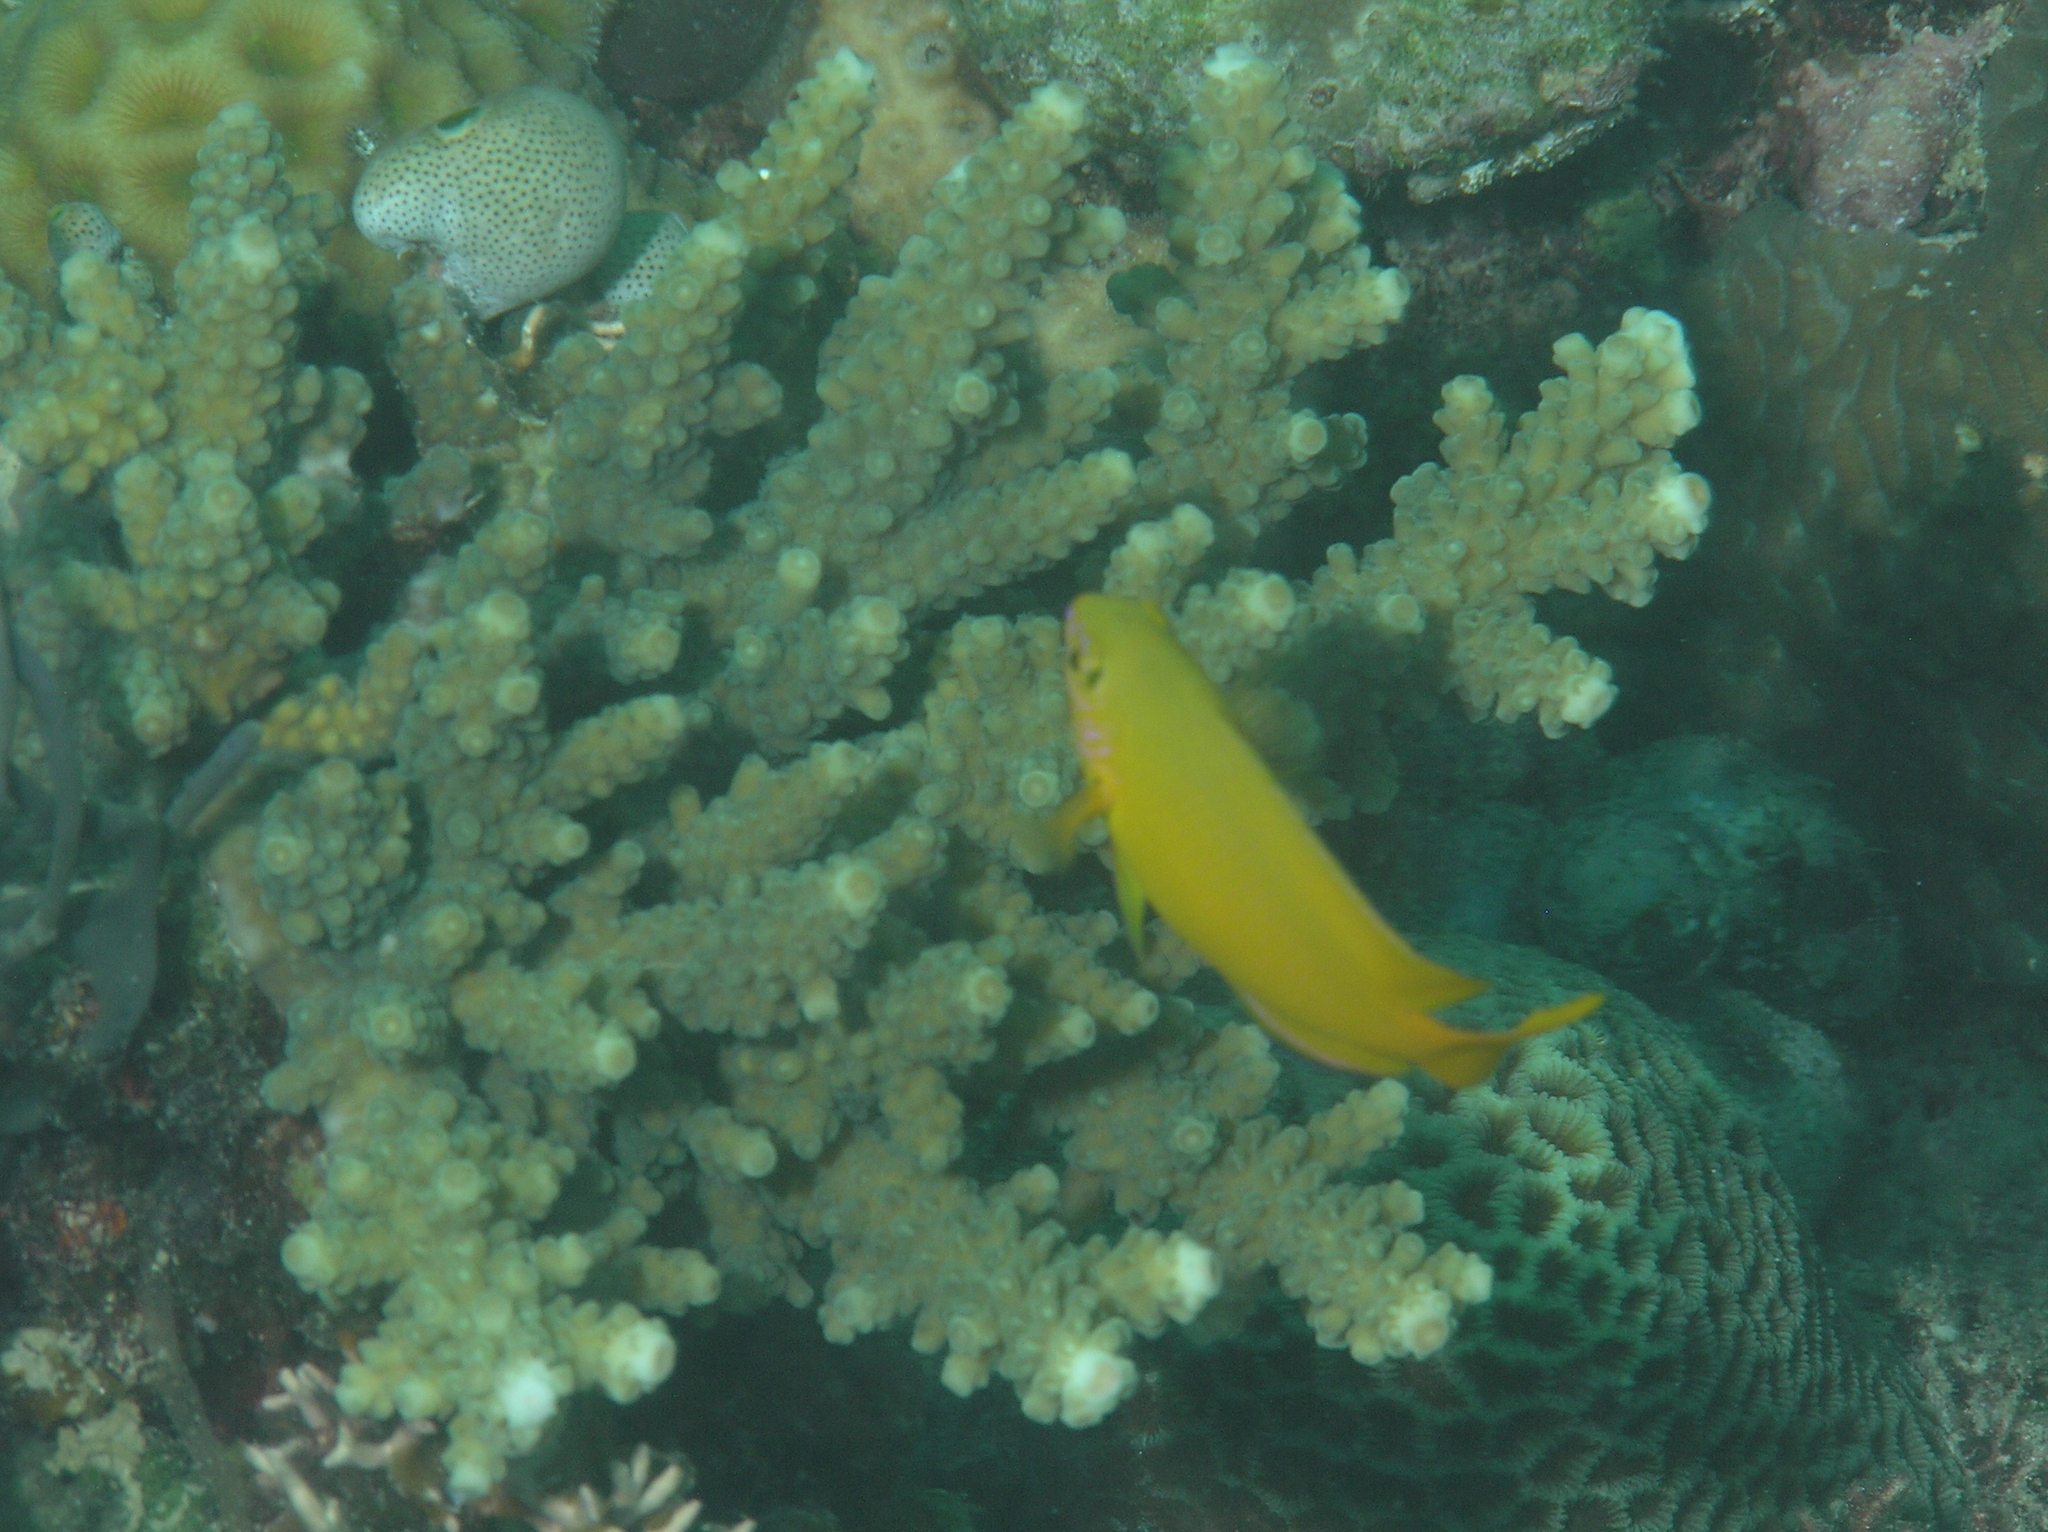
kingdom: Animalia
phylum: Chordata
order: Perciformes
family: Pomacentridae
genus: Pomacentrus
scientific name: Pomacentrus moluccensis
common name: Lemon damsel
